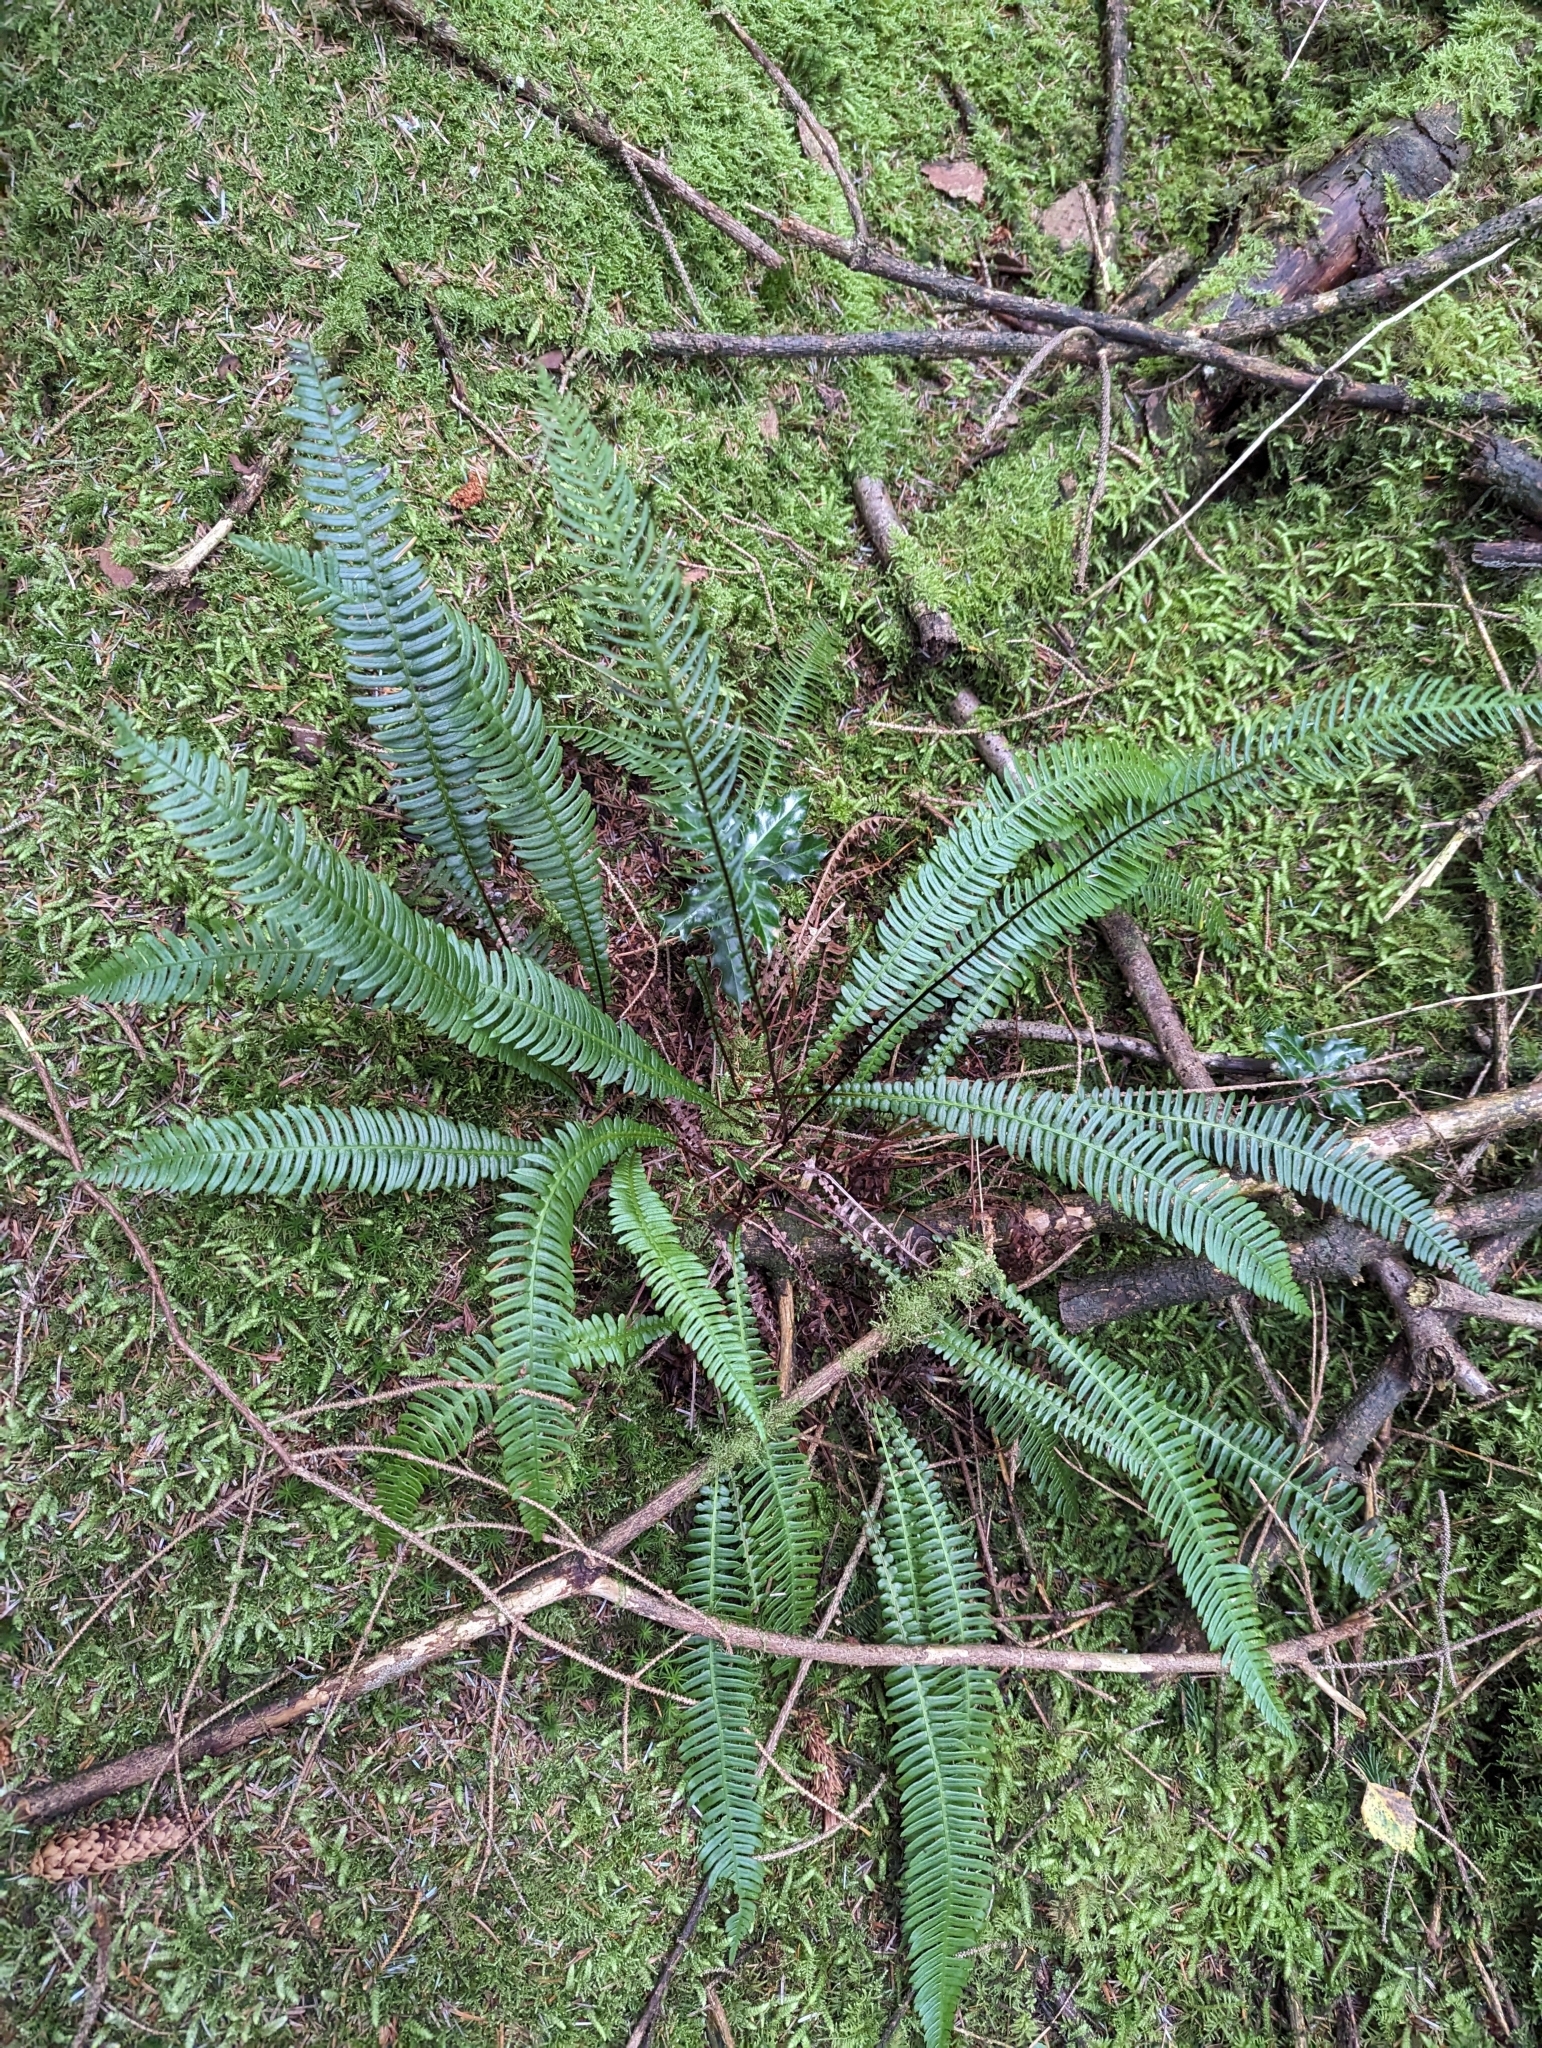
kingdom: Plantae
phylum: Tracheophyta
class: Polypodiopsida
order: Polypodiales
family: Blechnaceae
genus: Struthiopteris
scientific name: Struthiopteris spicant
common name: Deer fern
